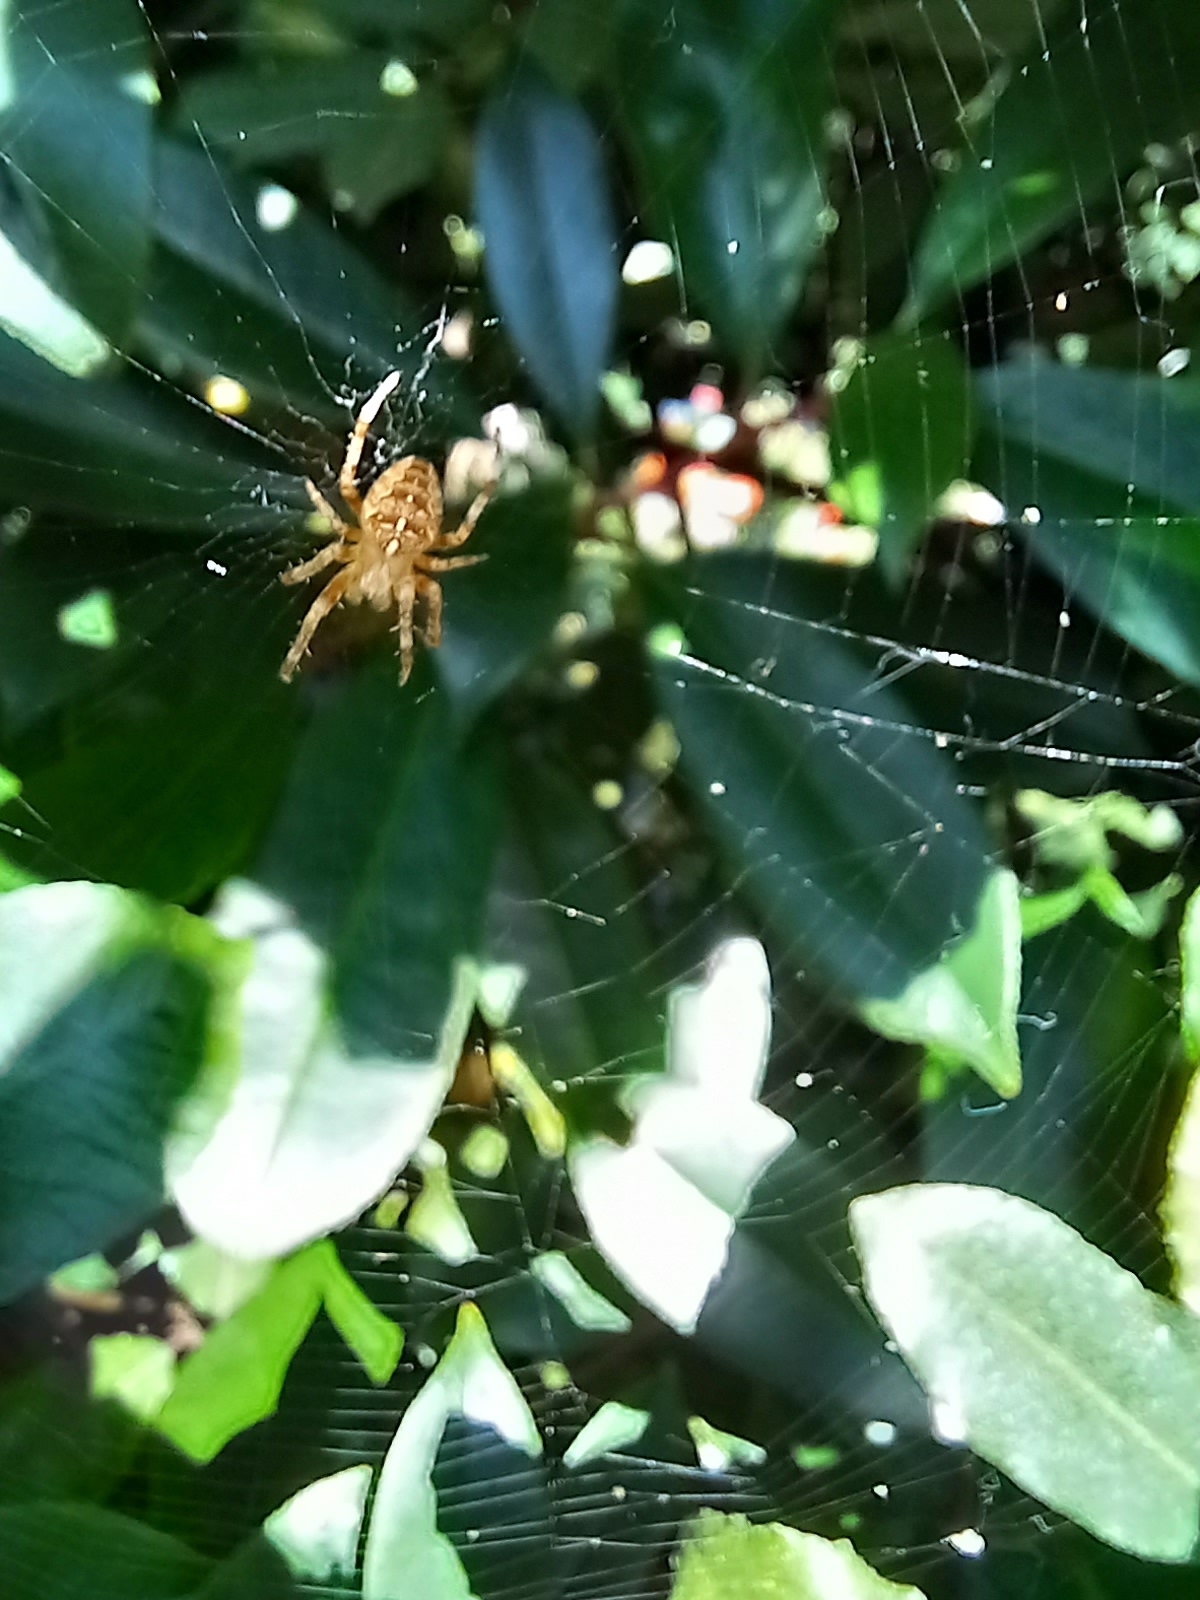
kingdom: Animalia
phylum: Arthropoda
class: Arachnida
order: Araneae
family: Araneidae
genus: Araneus
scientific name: Araneus diadematus
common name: Cross orbweaver
